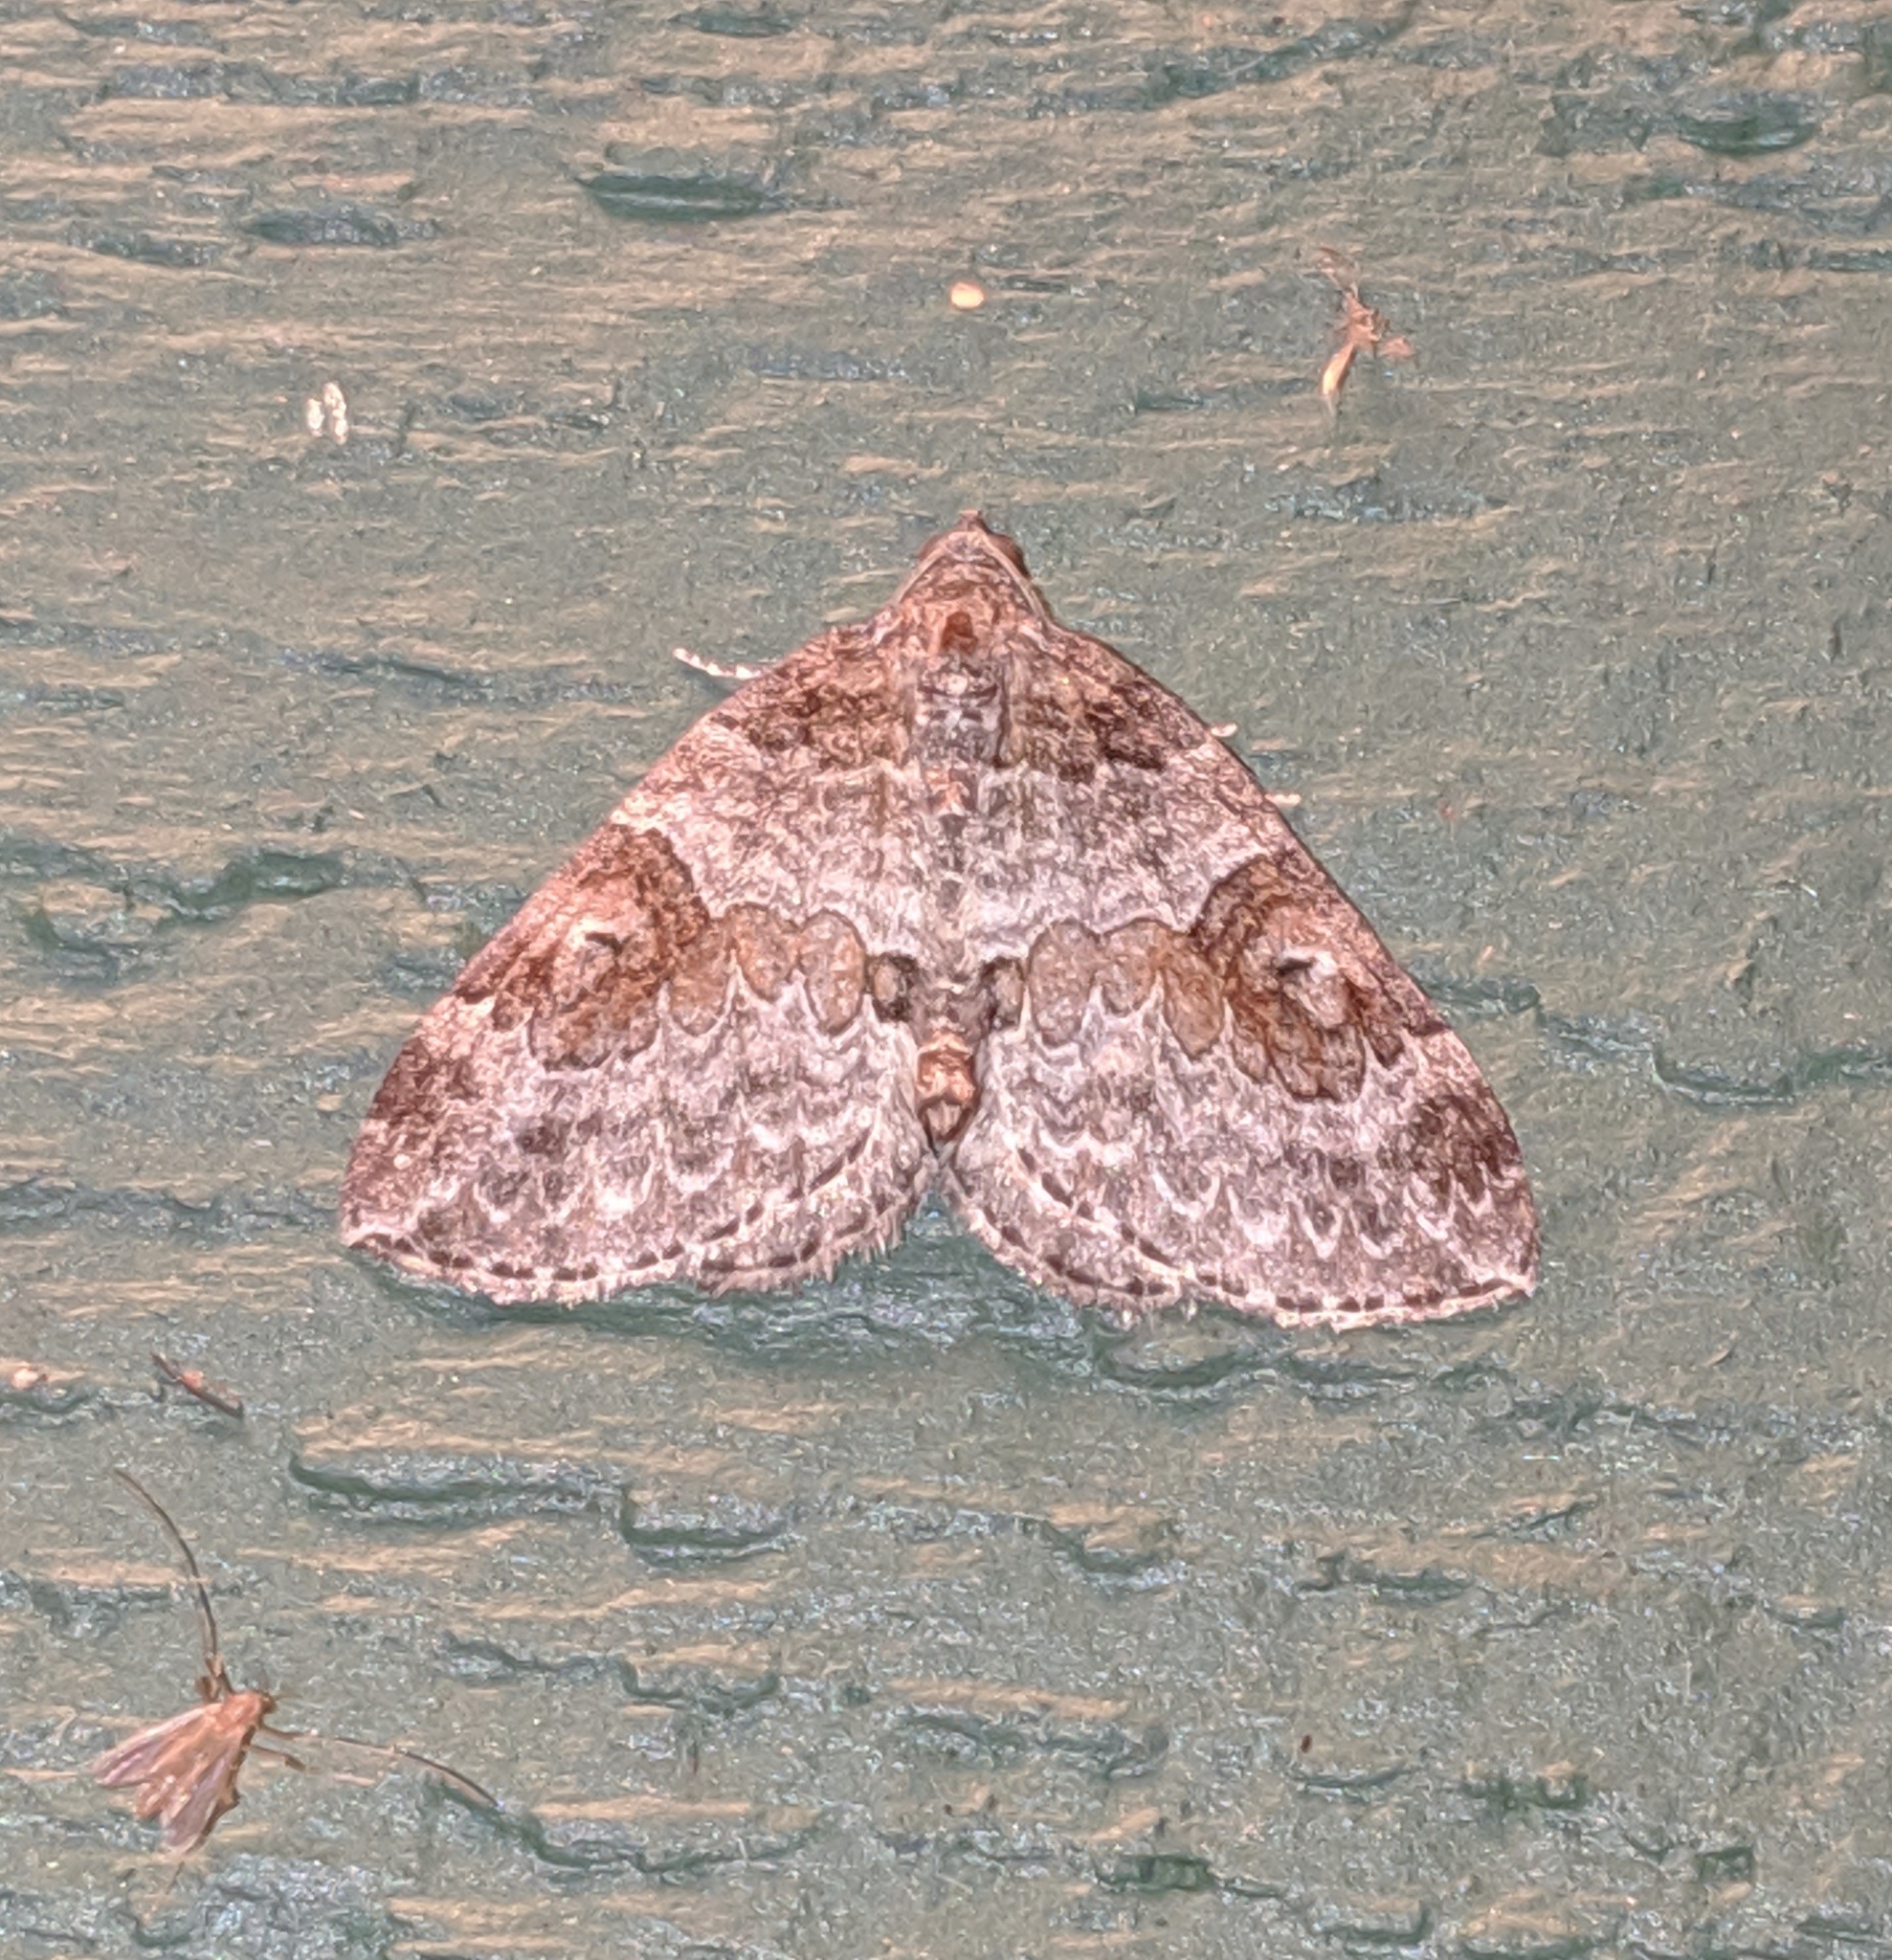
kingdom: Animalia
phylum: Arthropoda
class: Insecta
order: Lepidoptera
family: Geometridae
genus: Plemyria
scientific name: Plemyria georgii
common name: George's carpet moth
